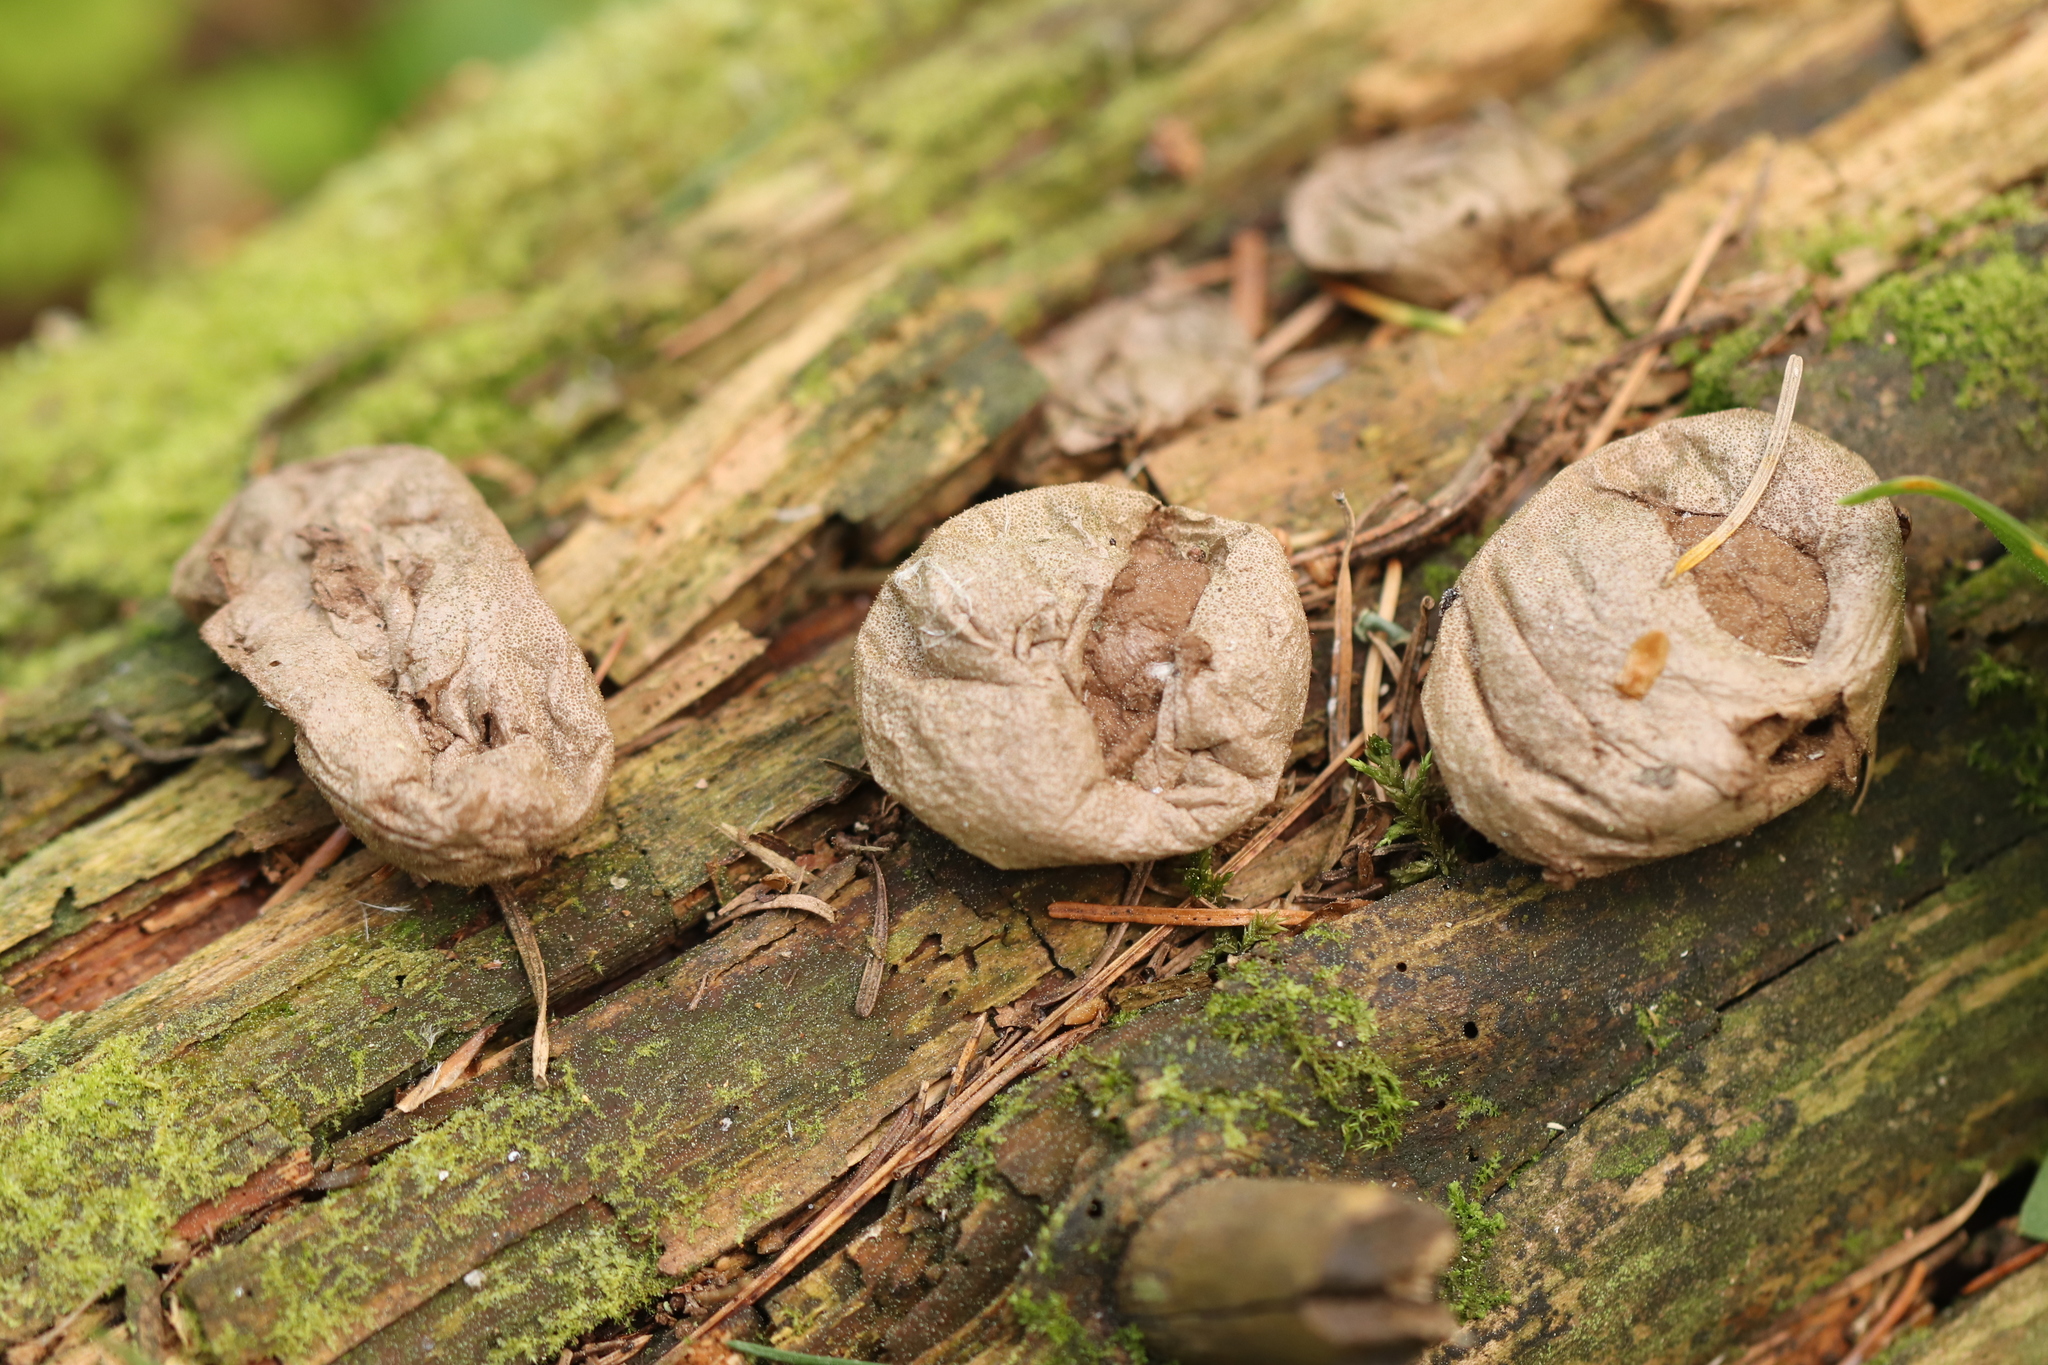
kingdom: Fungi
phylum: Basidiomycota
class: Agaricomycetes
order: Agaricales
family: Lycoperdaceae
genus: Lycoperdon
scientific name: Lycoperdon perlatum
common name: Common puffball
